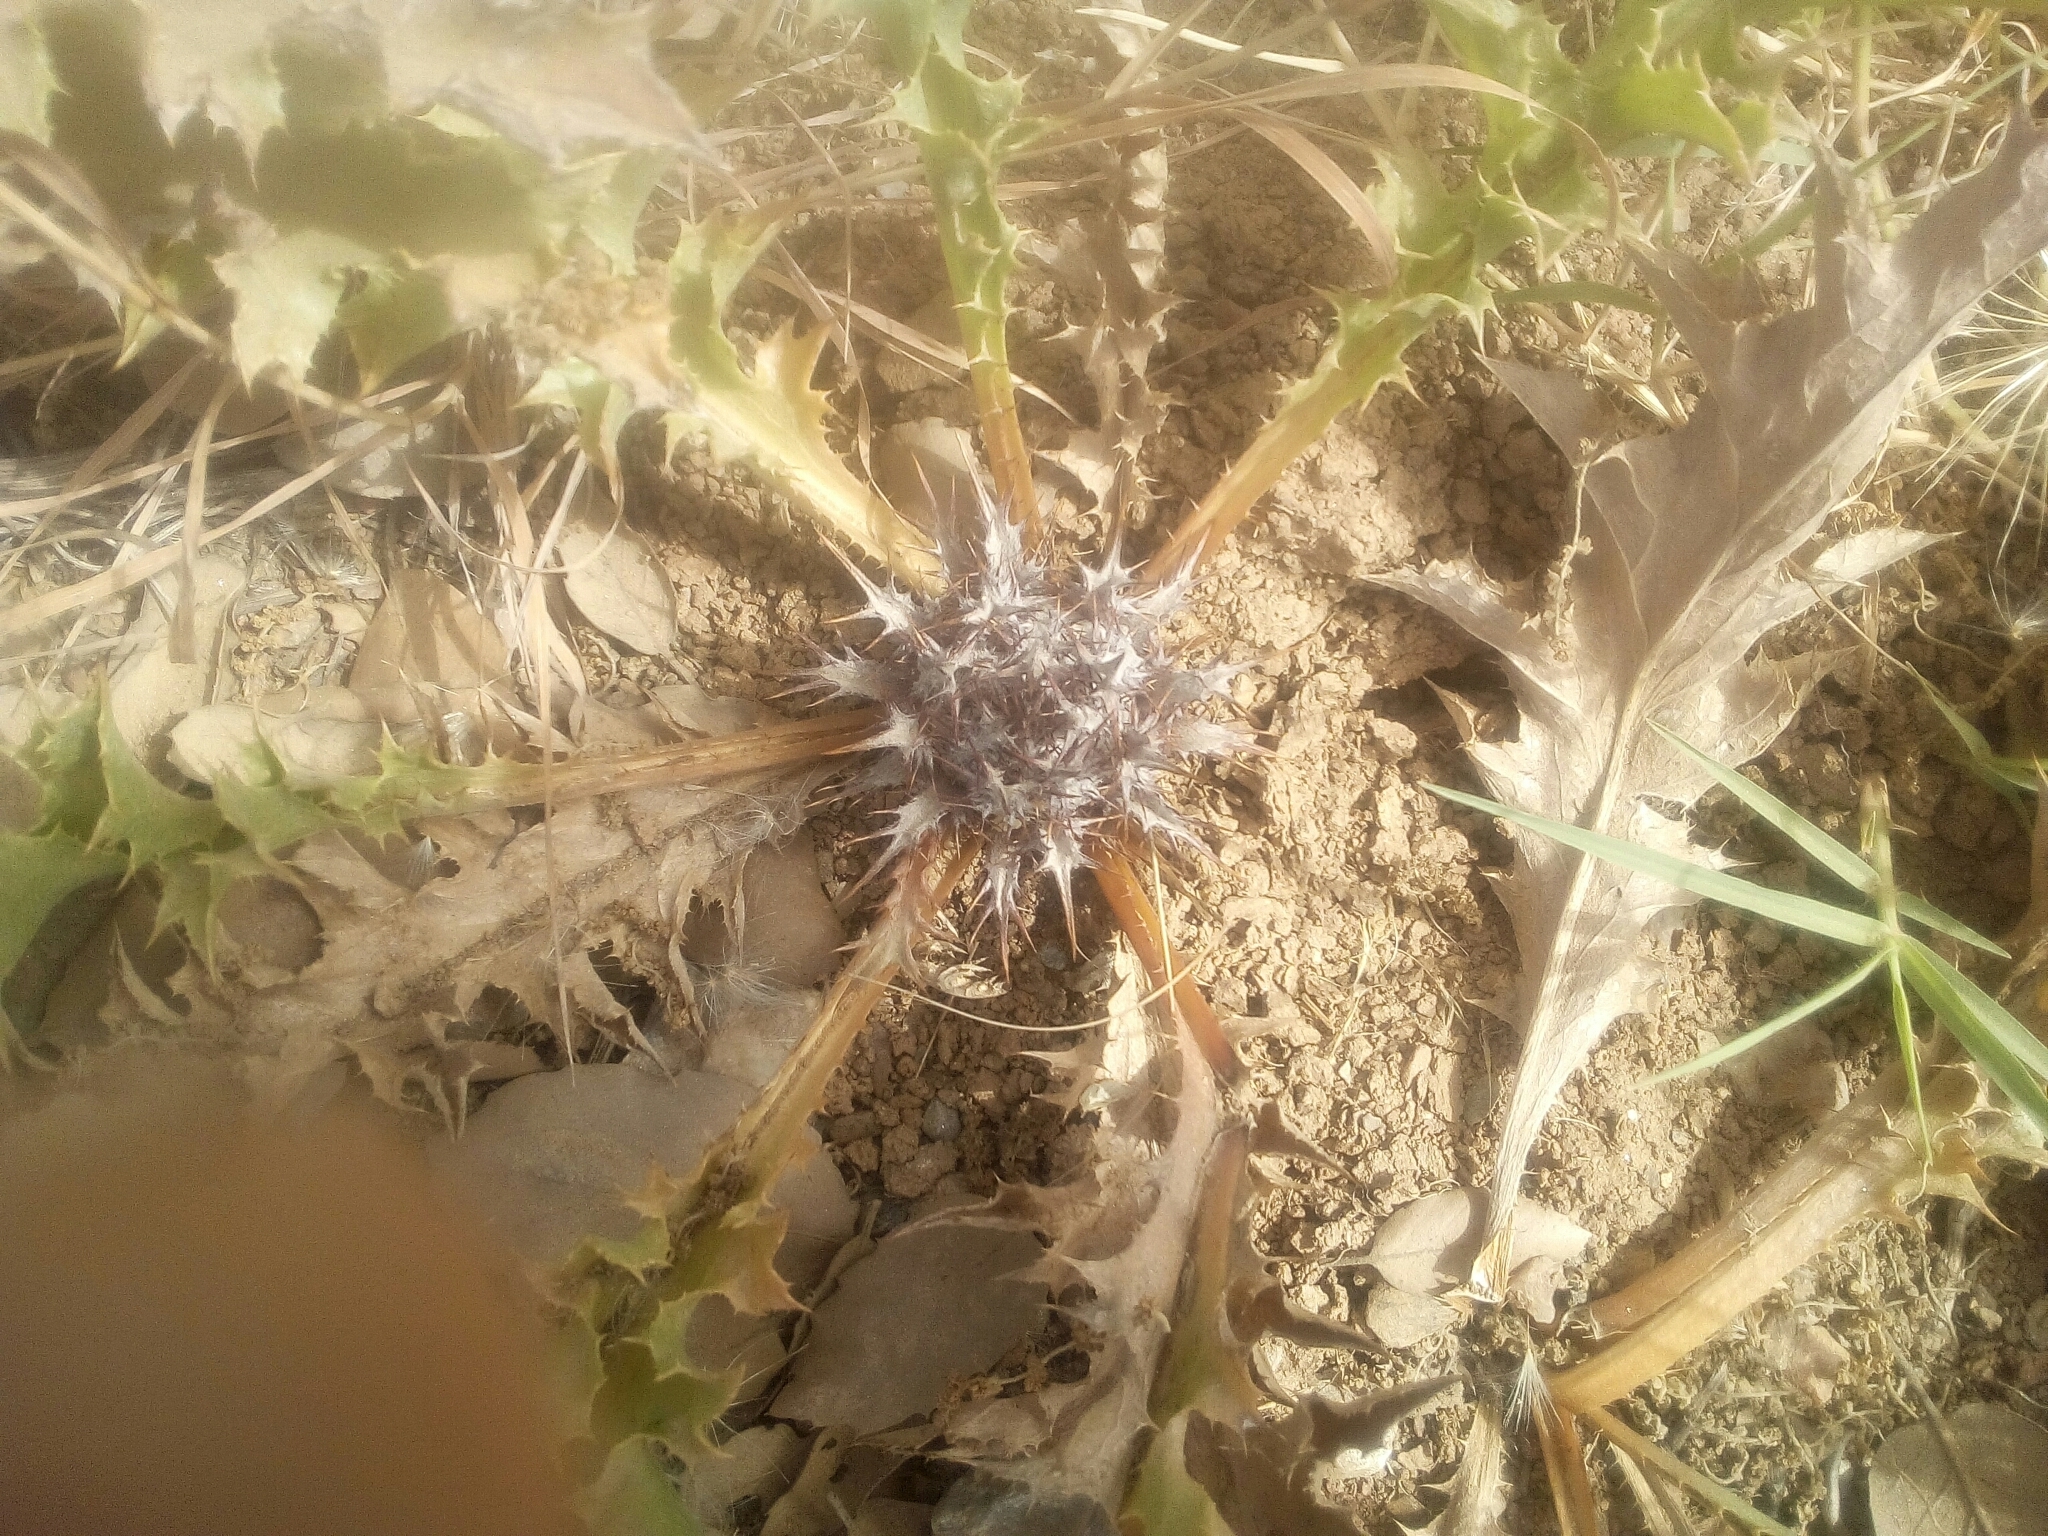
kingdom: Plantae
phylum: Tracheophyta
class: Magnoliopsida
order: Asterales
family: Asteraceae
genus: Chamaeleon
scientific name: Chamaeleon gummifer
